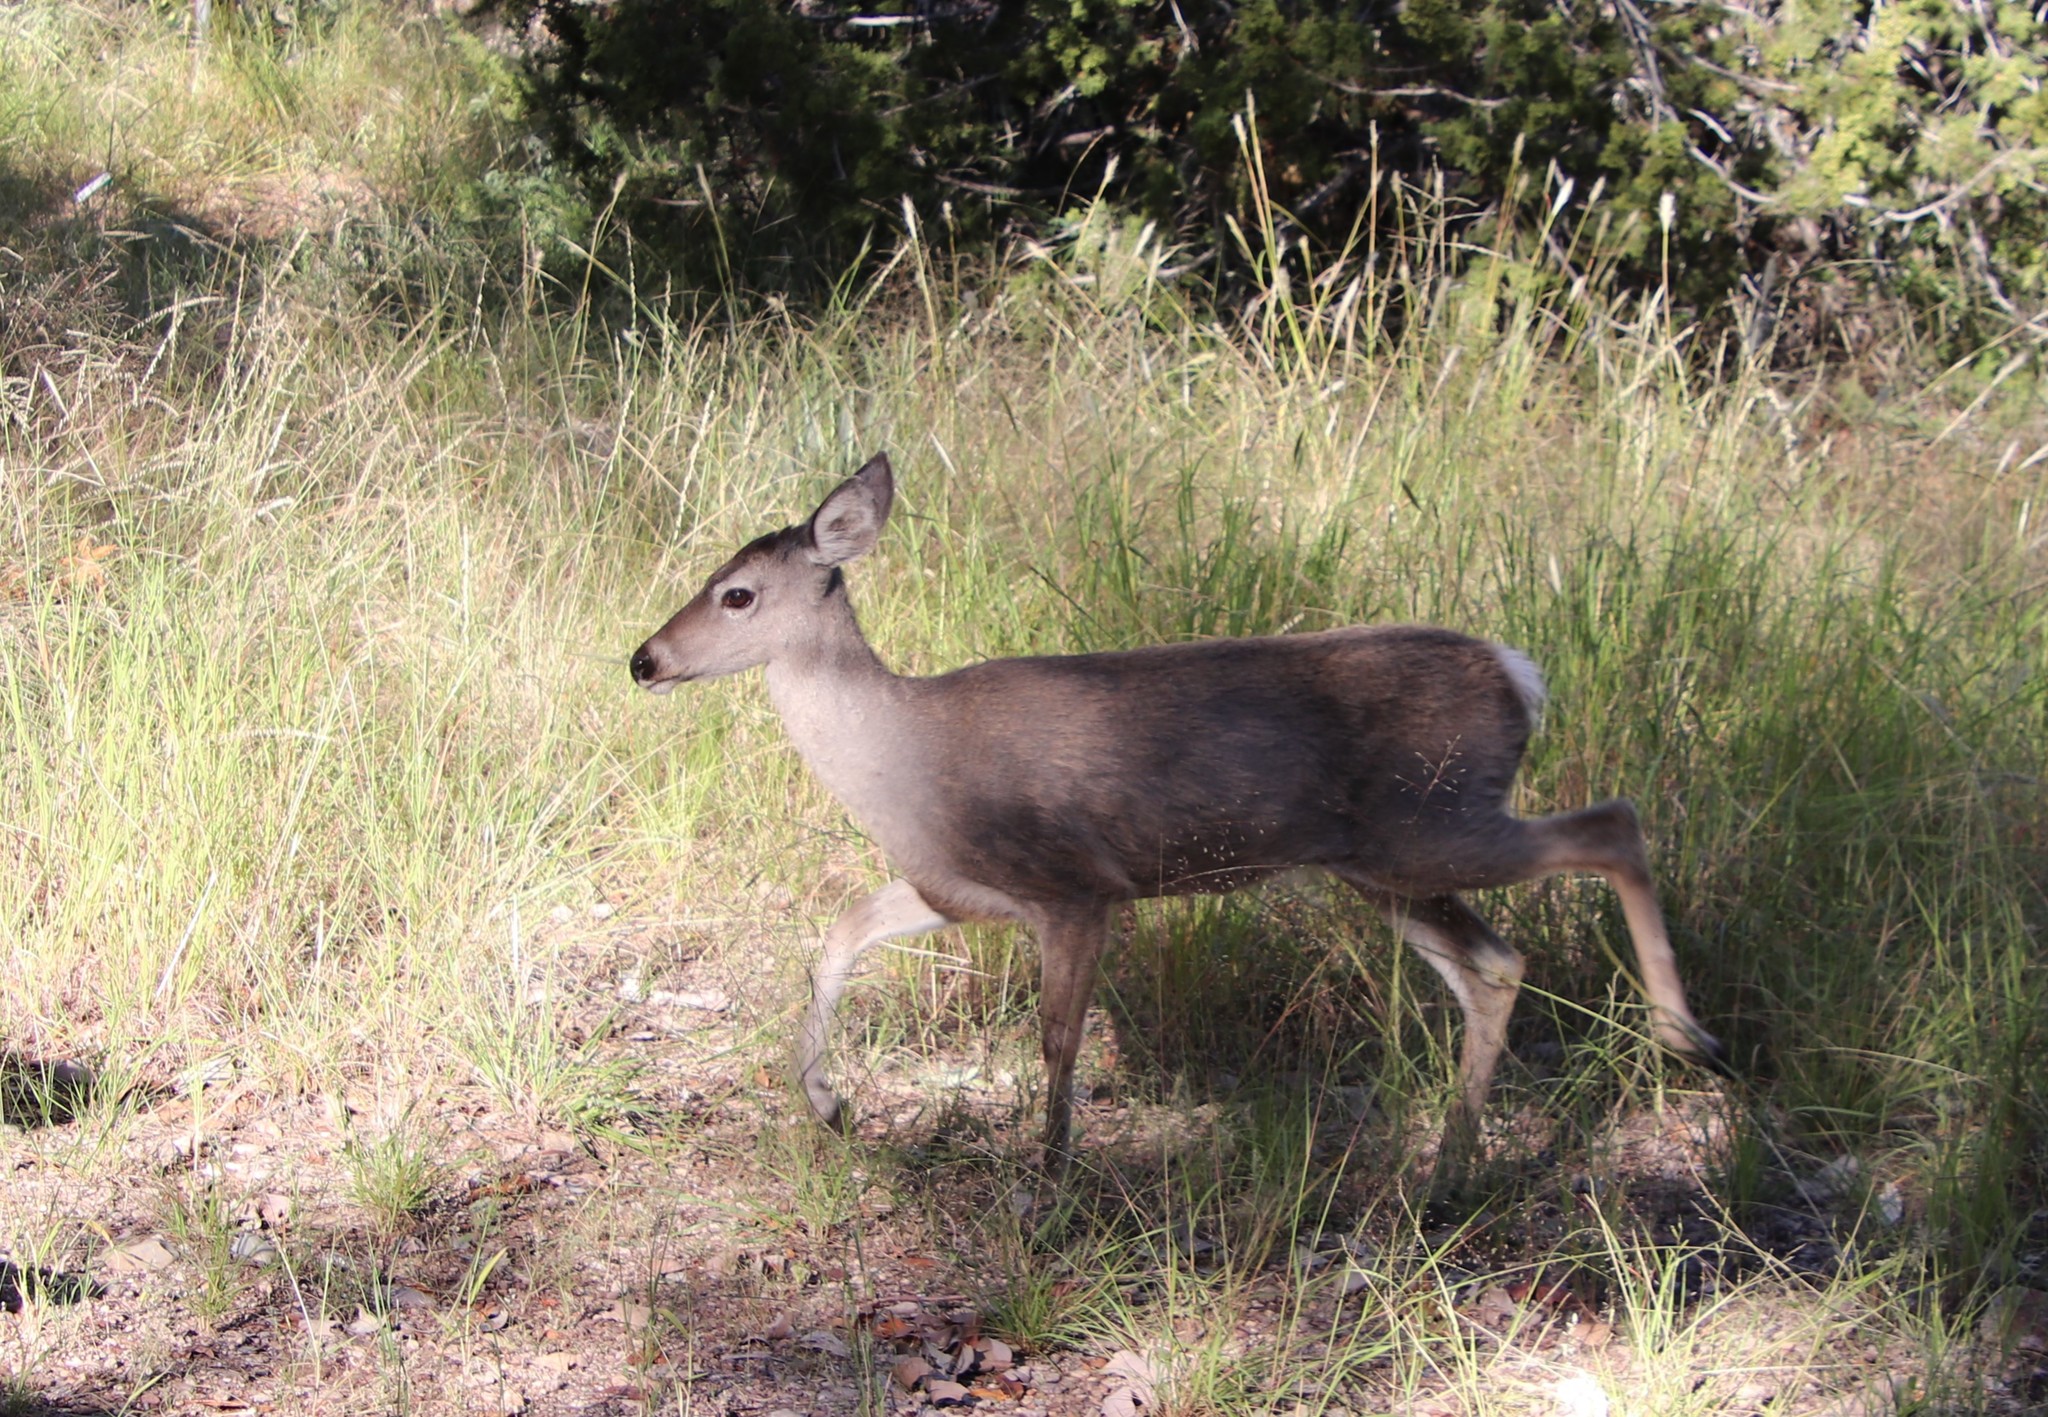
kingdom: Animalia
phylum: Chordata
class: Mammalia
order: Artiodactyla
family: Cervidae
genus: Odocoileus
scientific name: Odocoileus virginianus
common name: White-tailed deer
